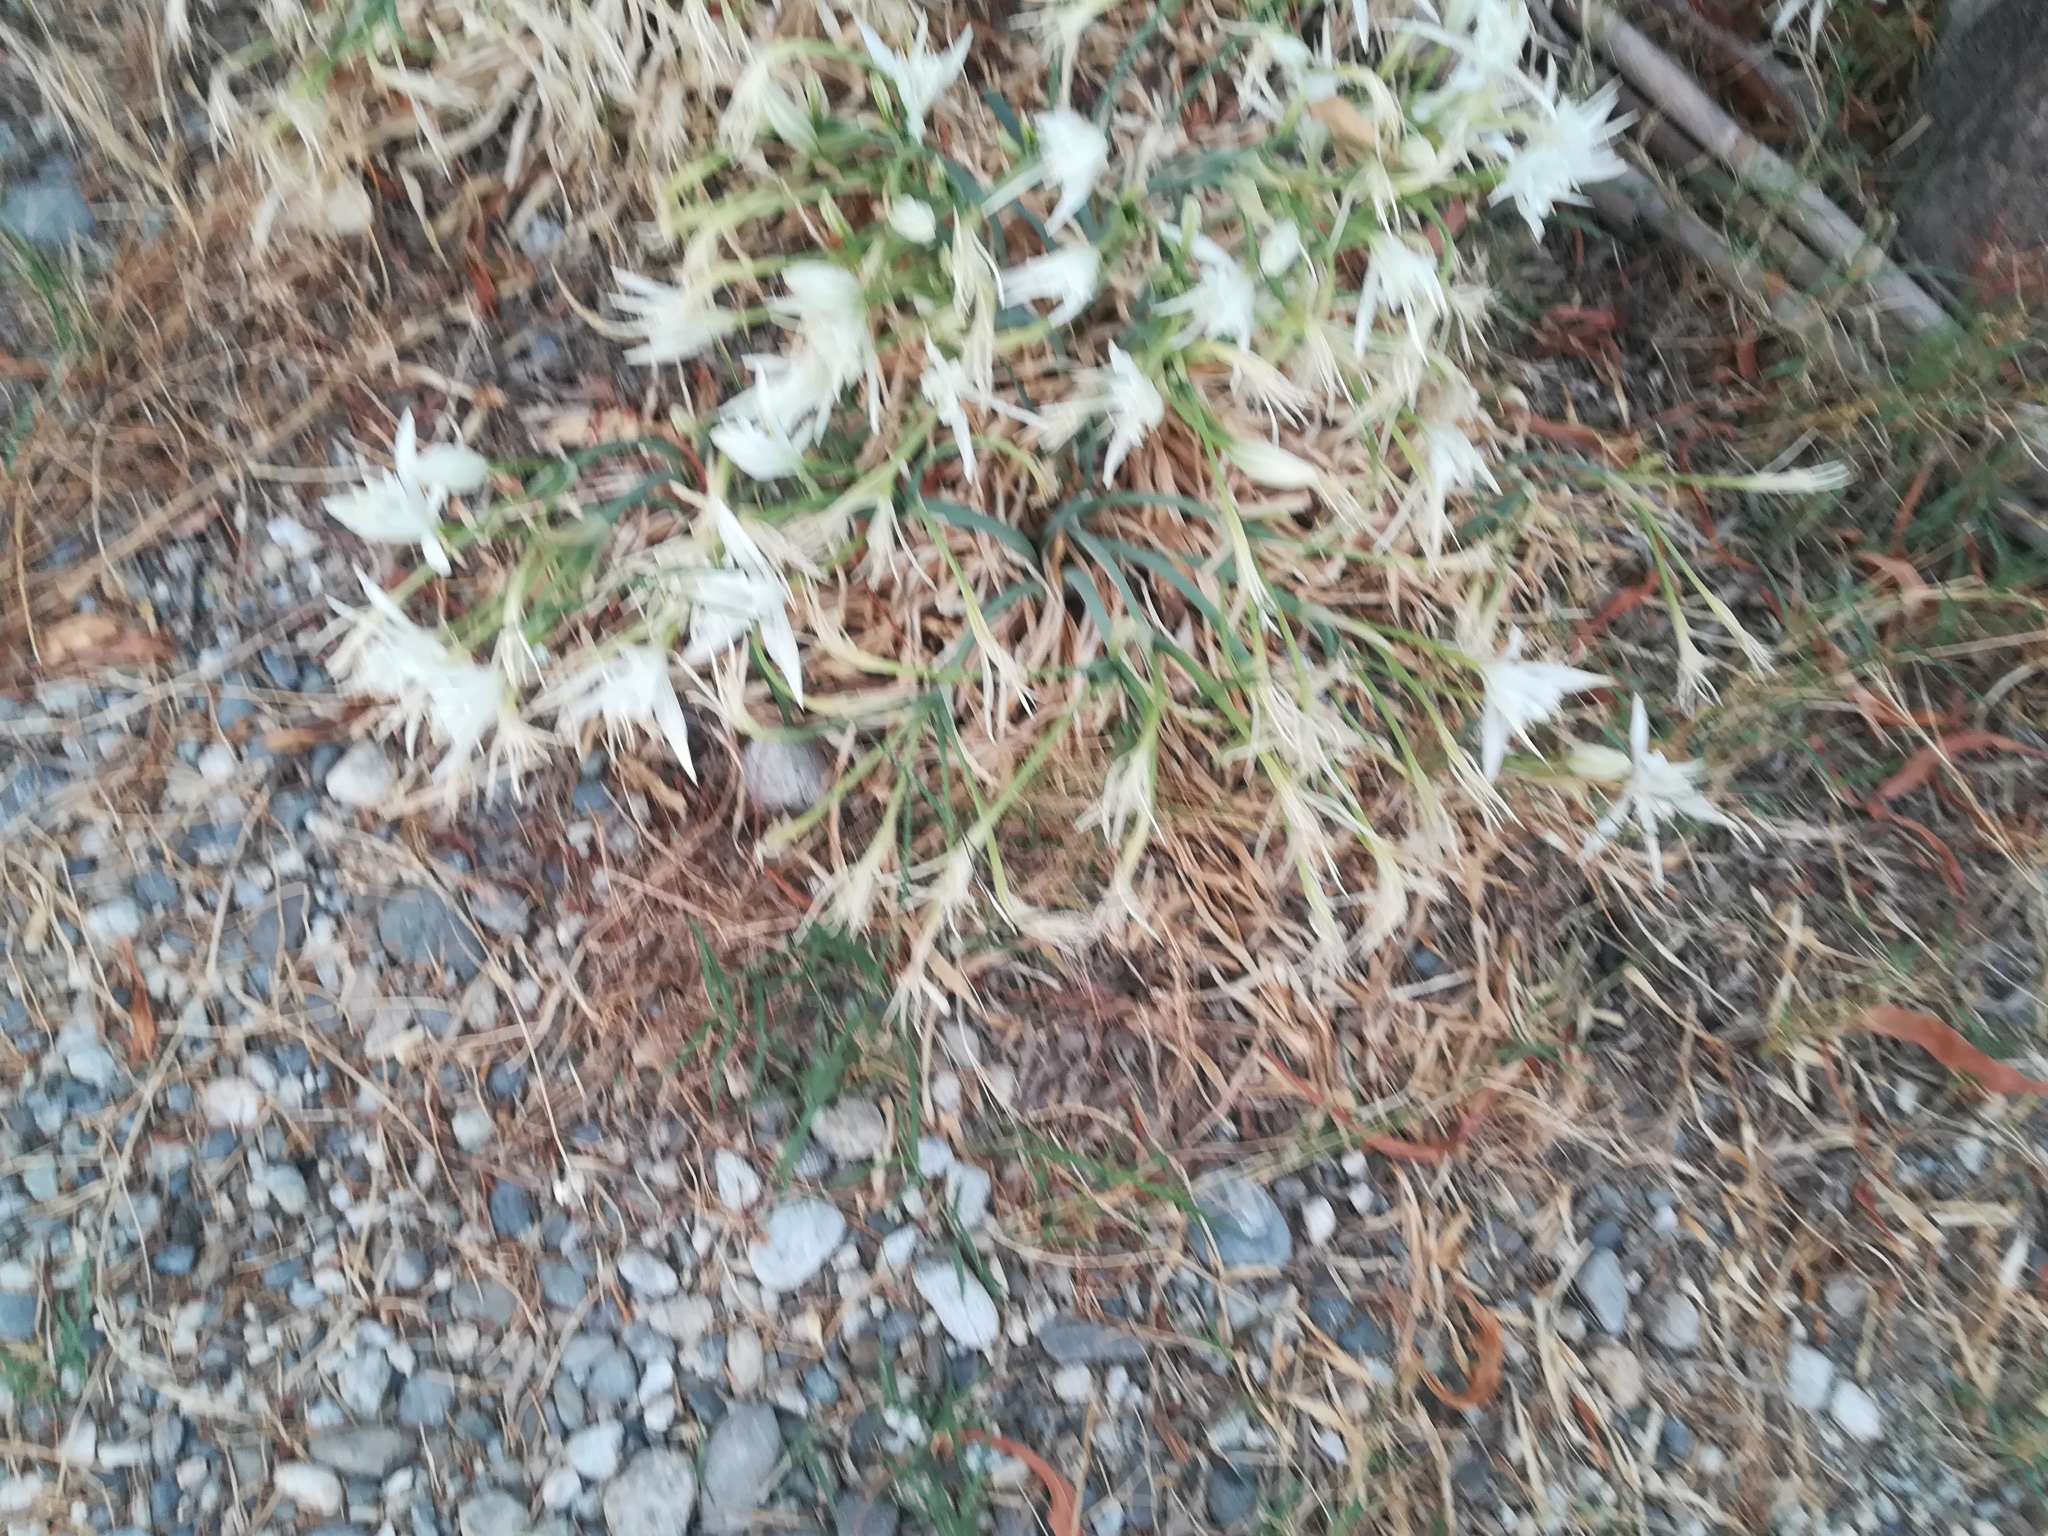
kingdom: Plantae
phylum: Tracheophyta
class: Liliopsida
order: Asparagales
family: Amaryllidaceae
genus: Pancratium
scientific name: Pancratium maritimum
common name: Sea-daffodil
